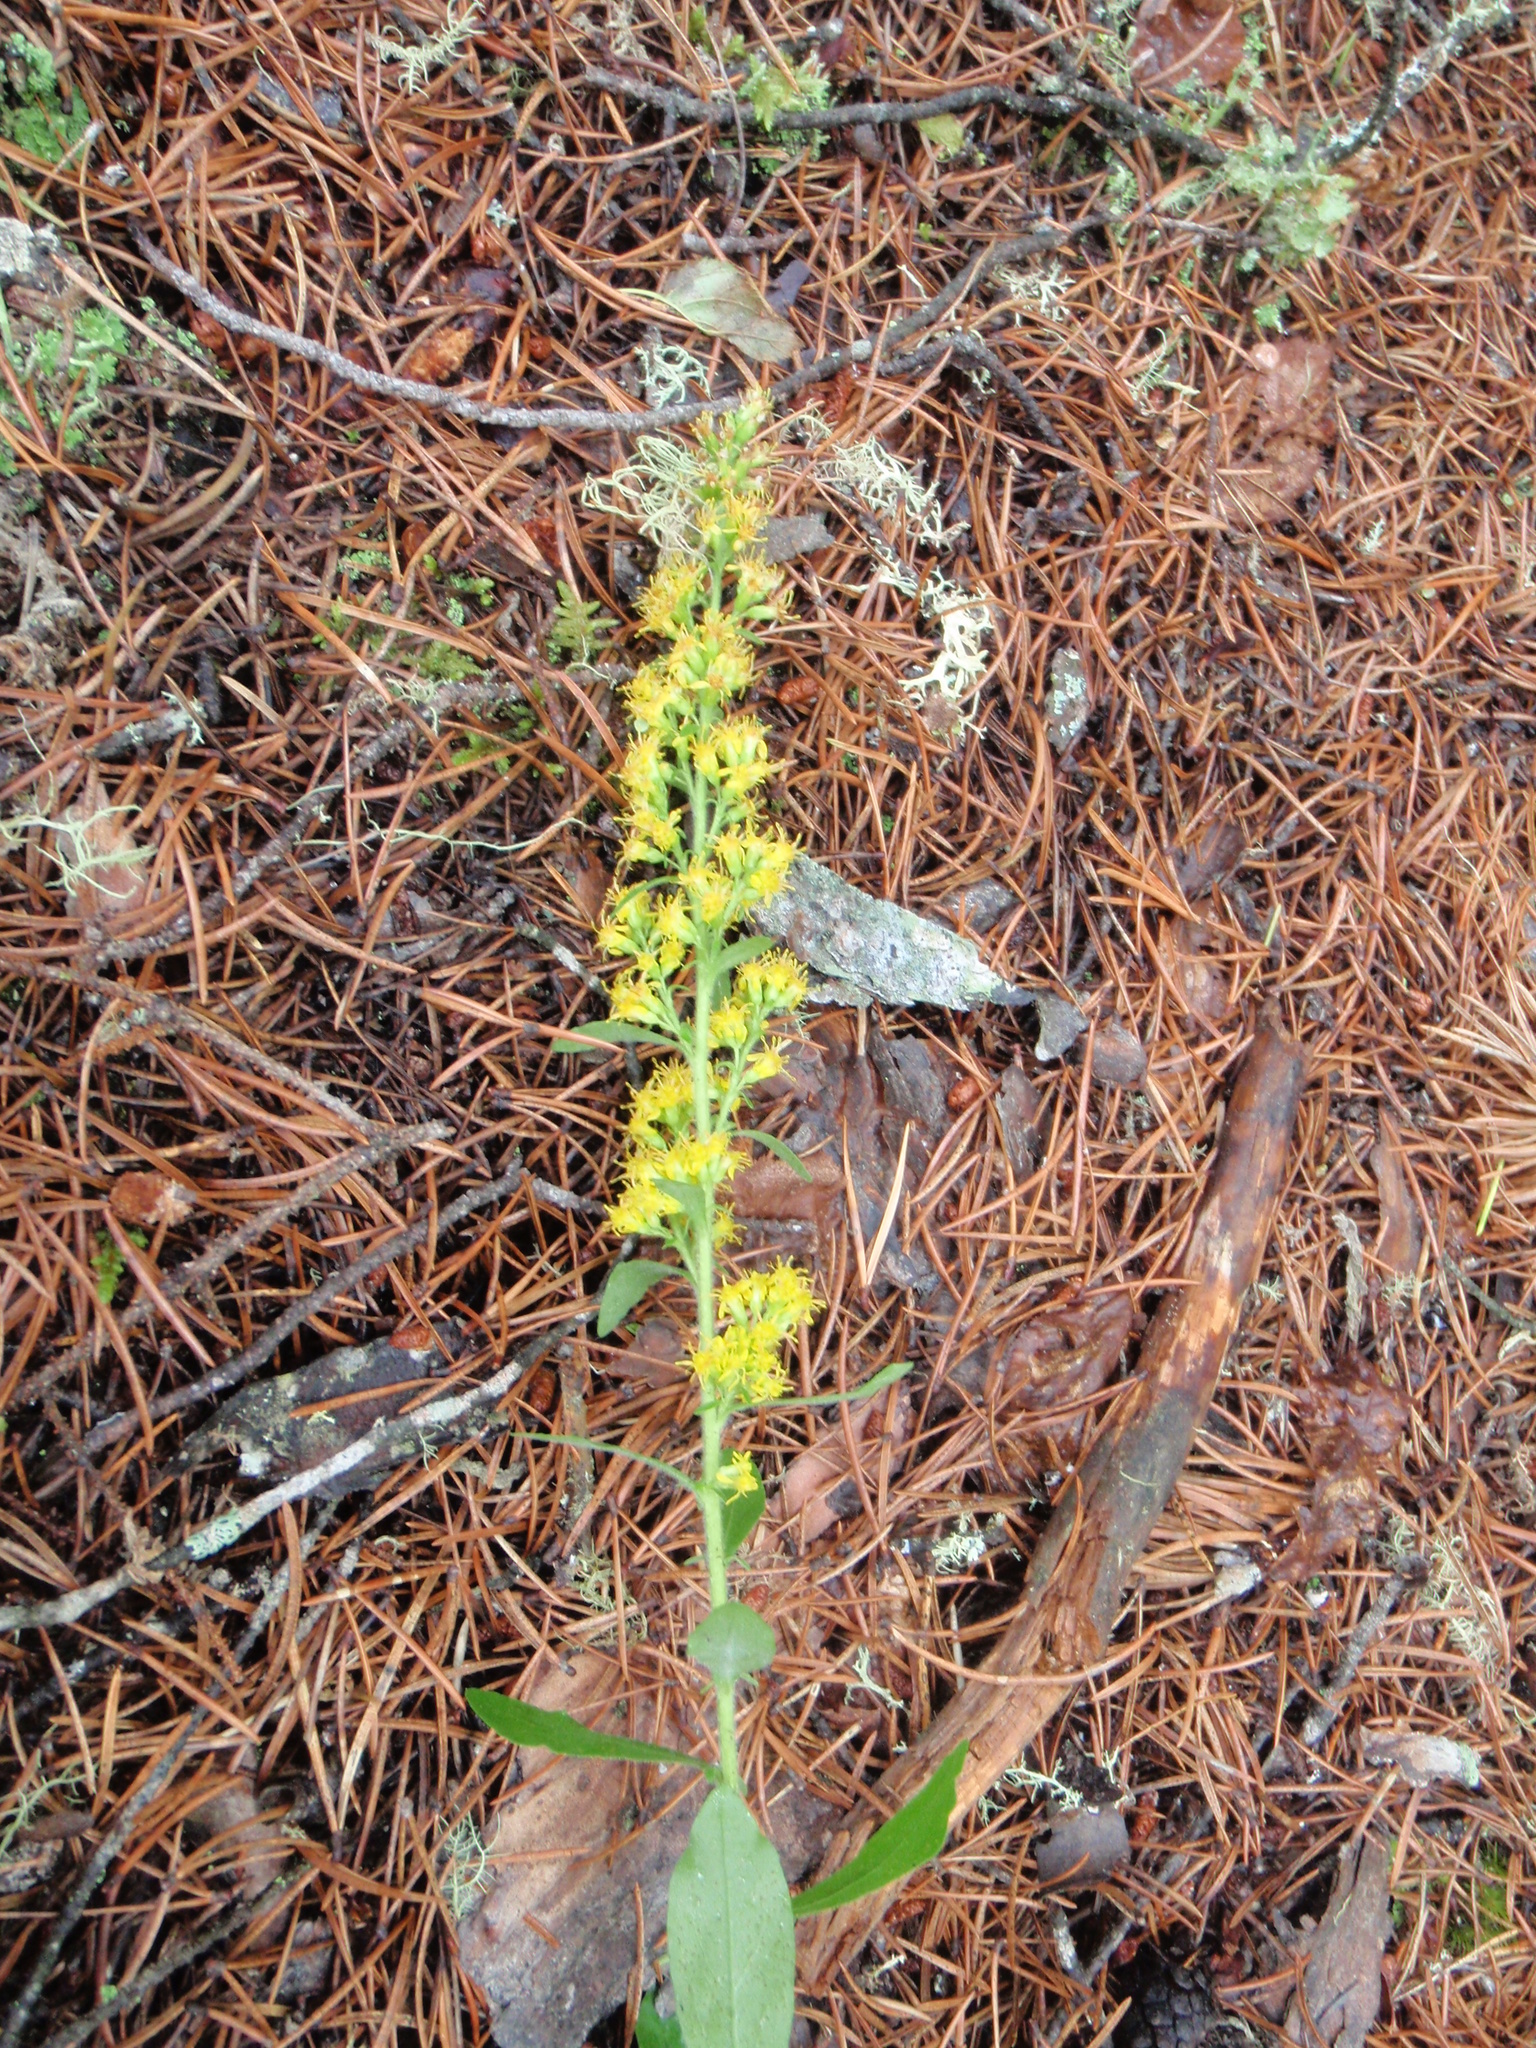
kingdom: Plantae
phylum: Tracheophyta
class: Magnoliopsida
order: Asterales
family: Asteraceae
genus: Solidago
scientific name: Solidago hispida
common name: Hairy goldenrod
